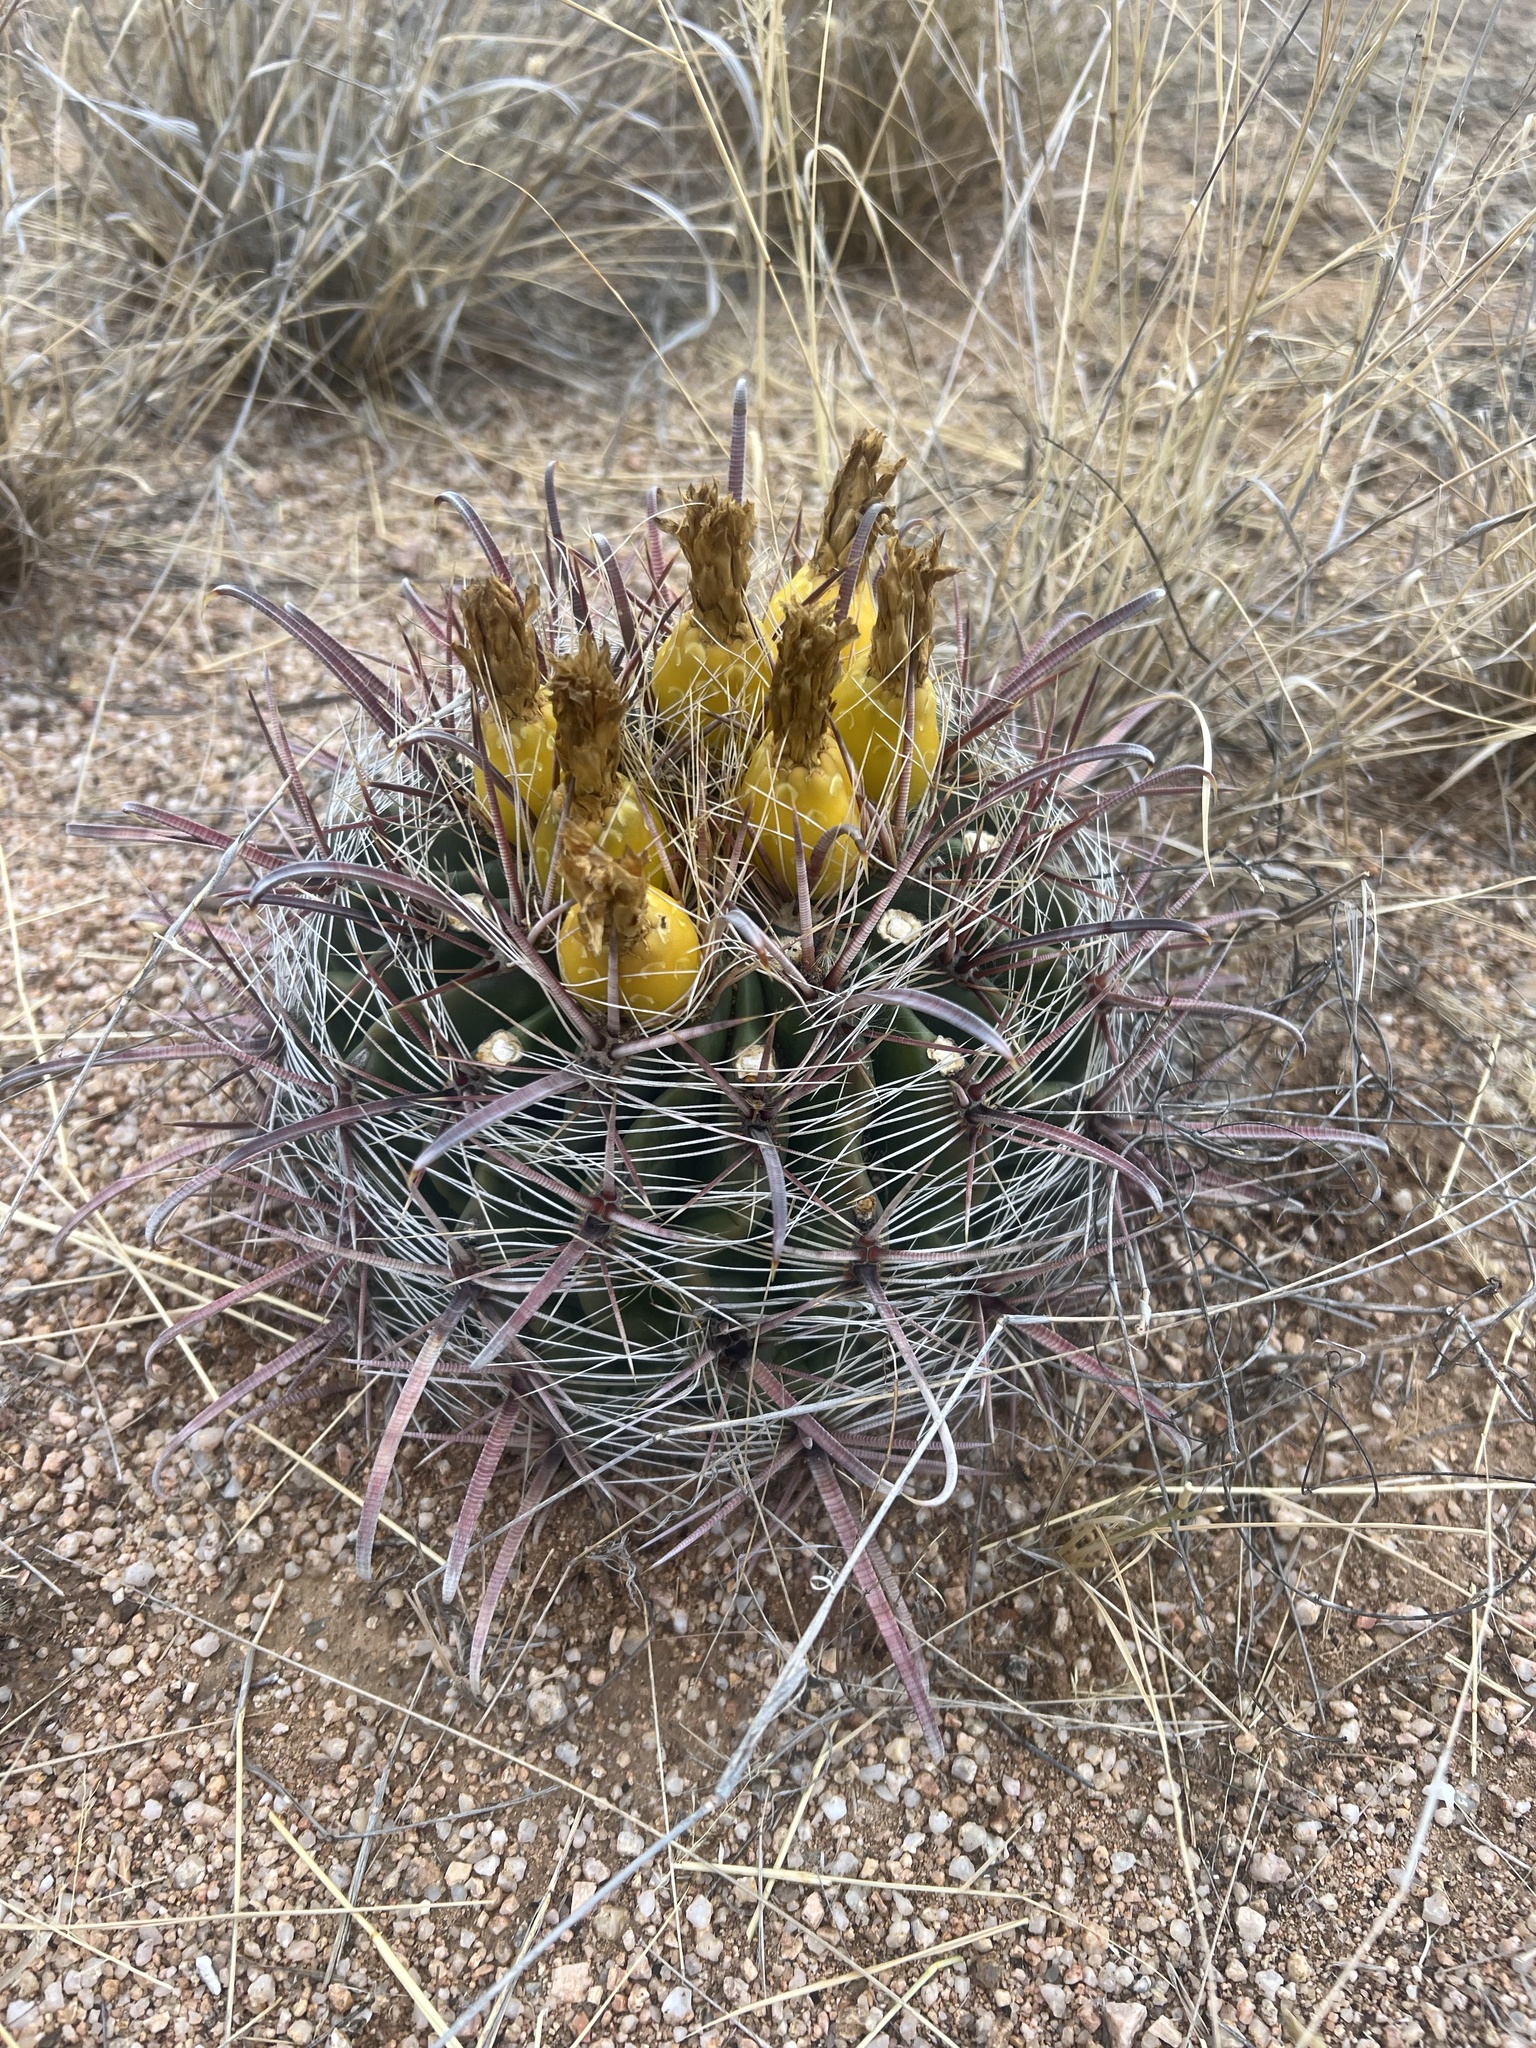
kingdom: Plantae
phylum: Tracheophyta
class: Magnoliopsida
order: Caryophyllales
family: Cactaceae
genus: Ferocactus
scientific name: Ferocactus wislizeni
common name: Candy barrel cactus
